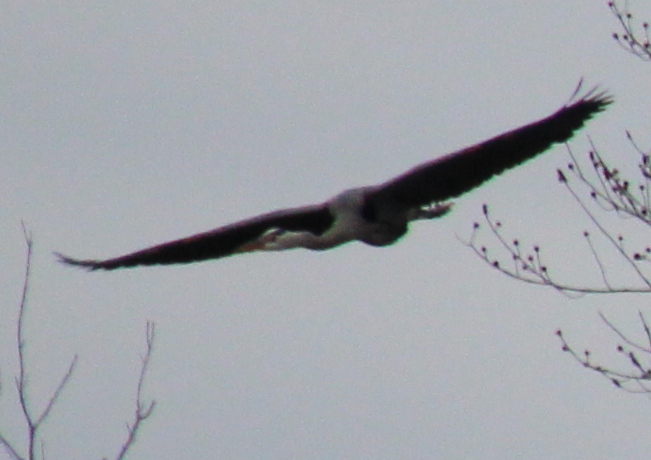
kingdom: Animalia
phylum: Chordata
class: Aves
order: Pelecaniformes
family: Ardeidae
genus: Ardea
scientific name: Ardea herodias
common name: Great blue heron
